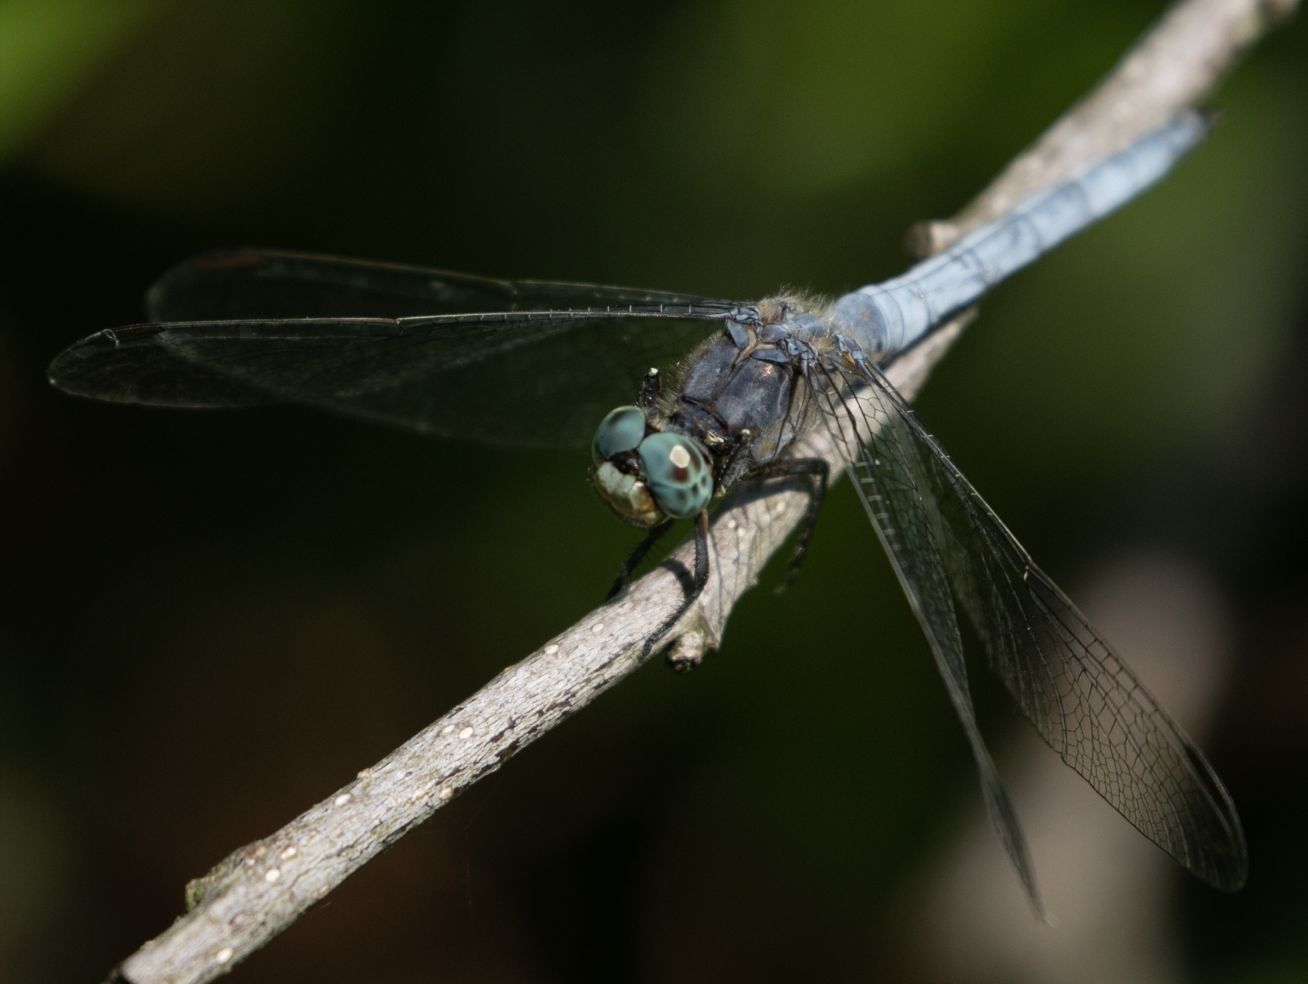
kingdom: Animalia
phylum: Arthropoda
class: Insecta
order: Odonata
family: Libellulidae
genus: Orthetrum
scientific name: Orthetrum coerulescens
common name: Keeled skimmer
